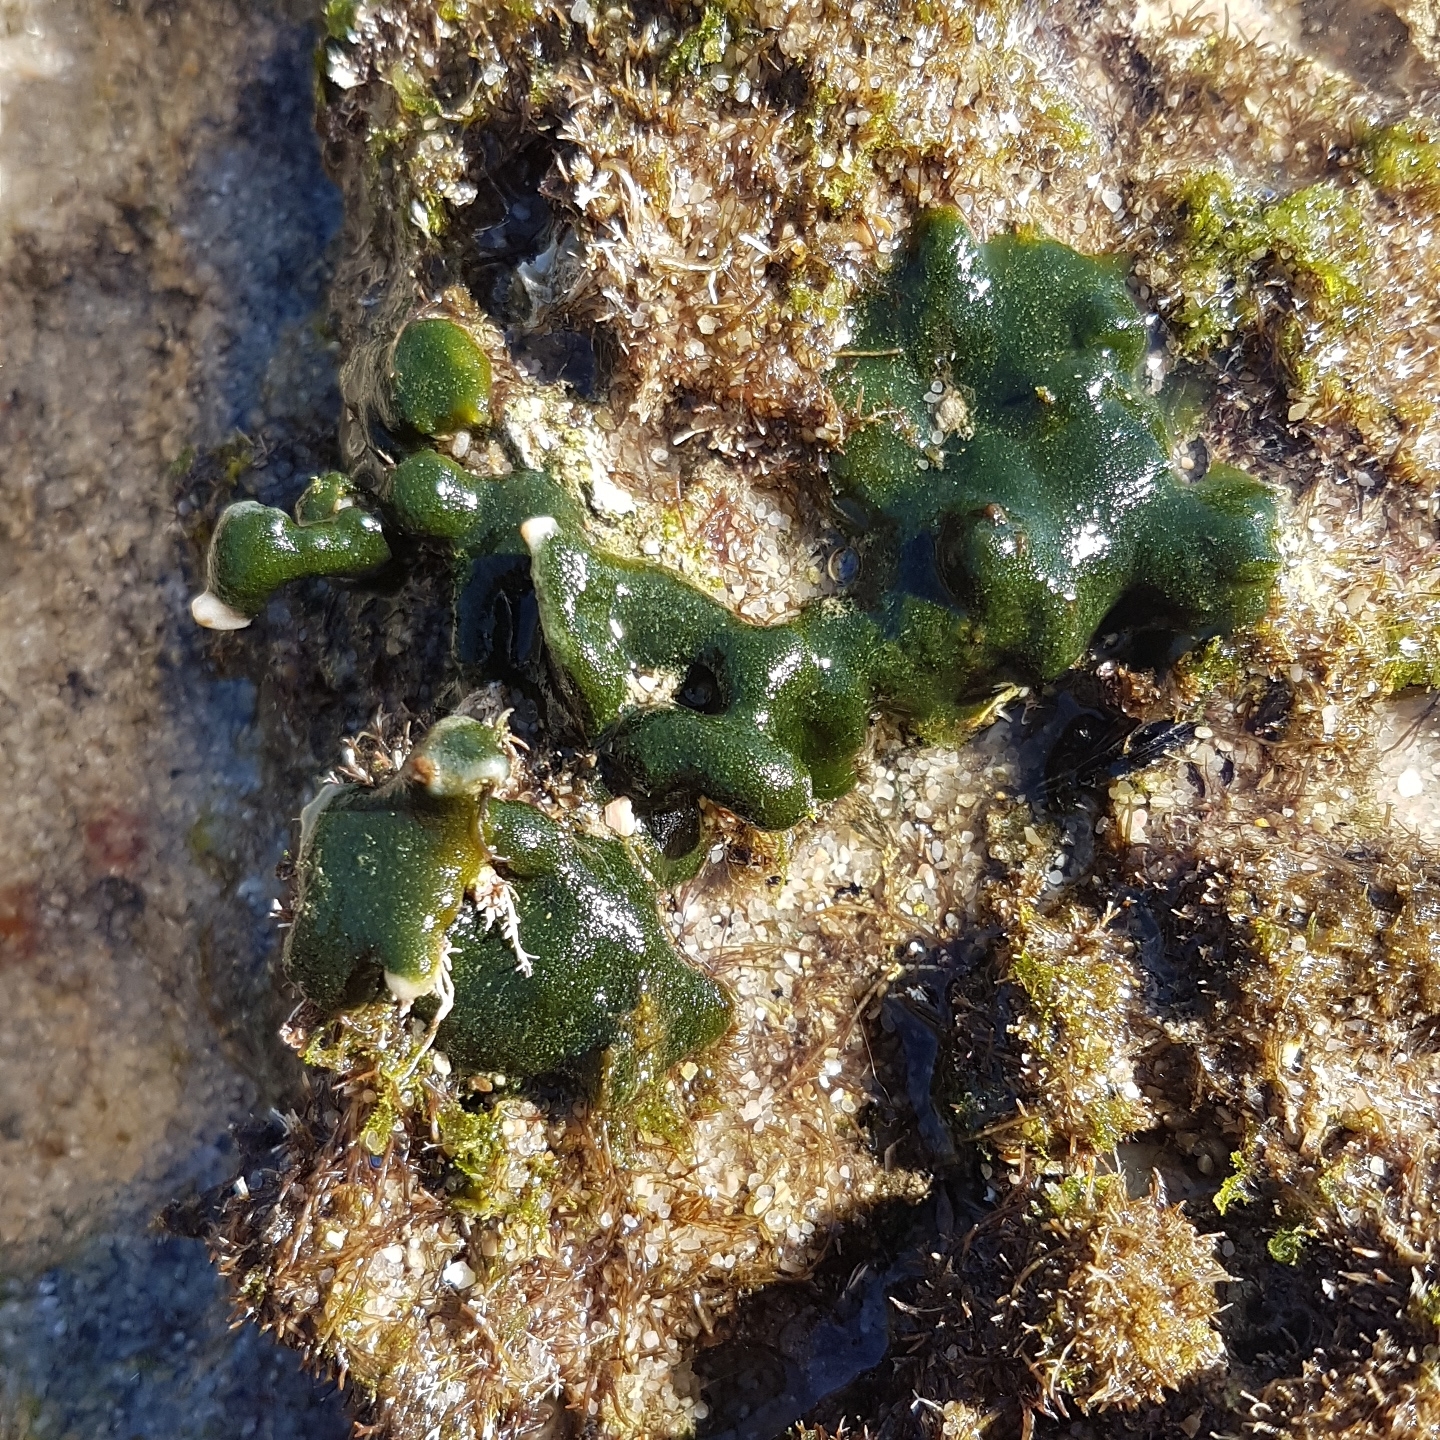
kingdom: Plantae
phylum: Chlorophyta
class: Ulvophyceae
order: Bryopsidales
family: Codiaceae
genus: Codium
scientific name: Codium adhaerens
